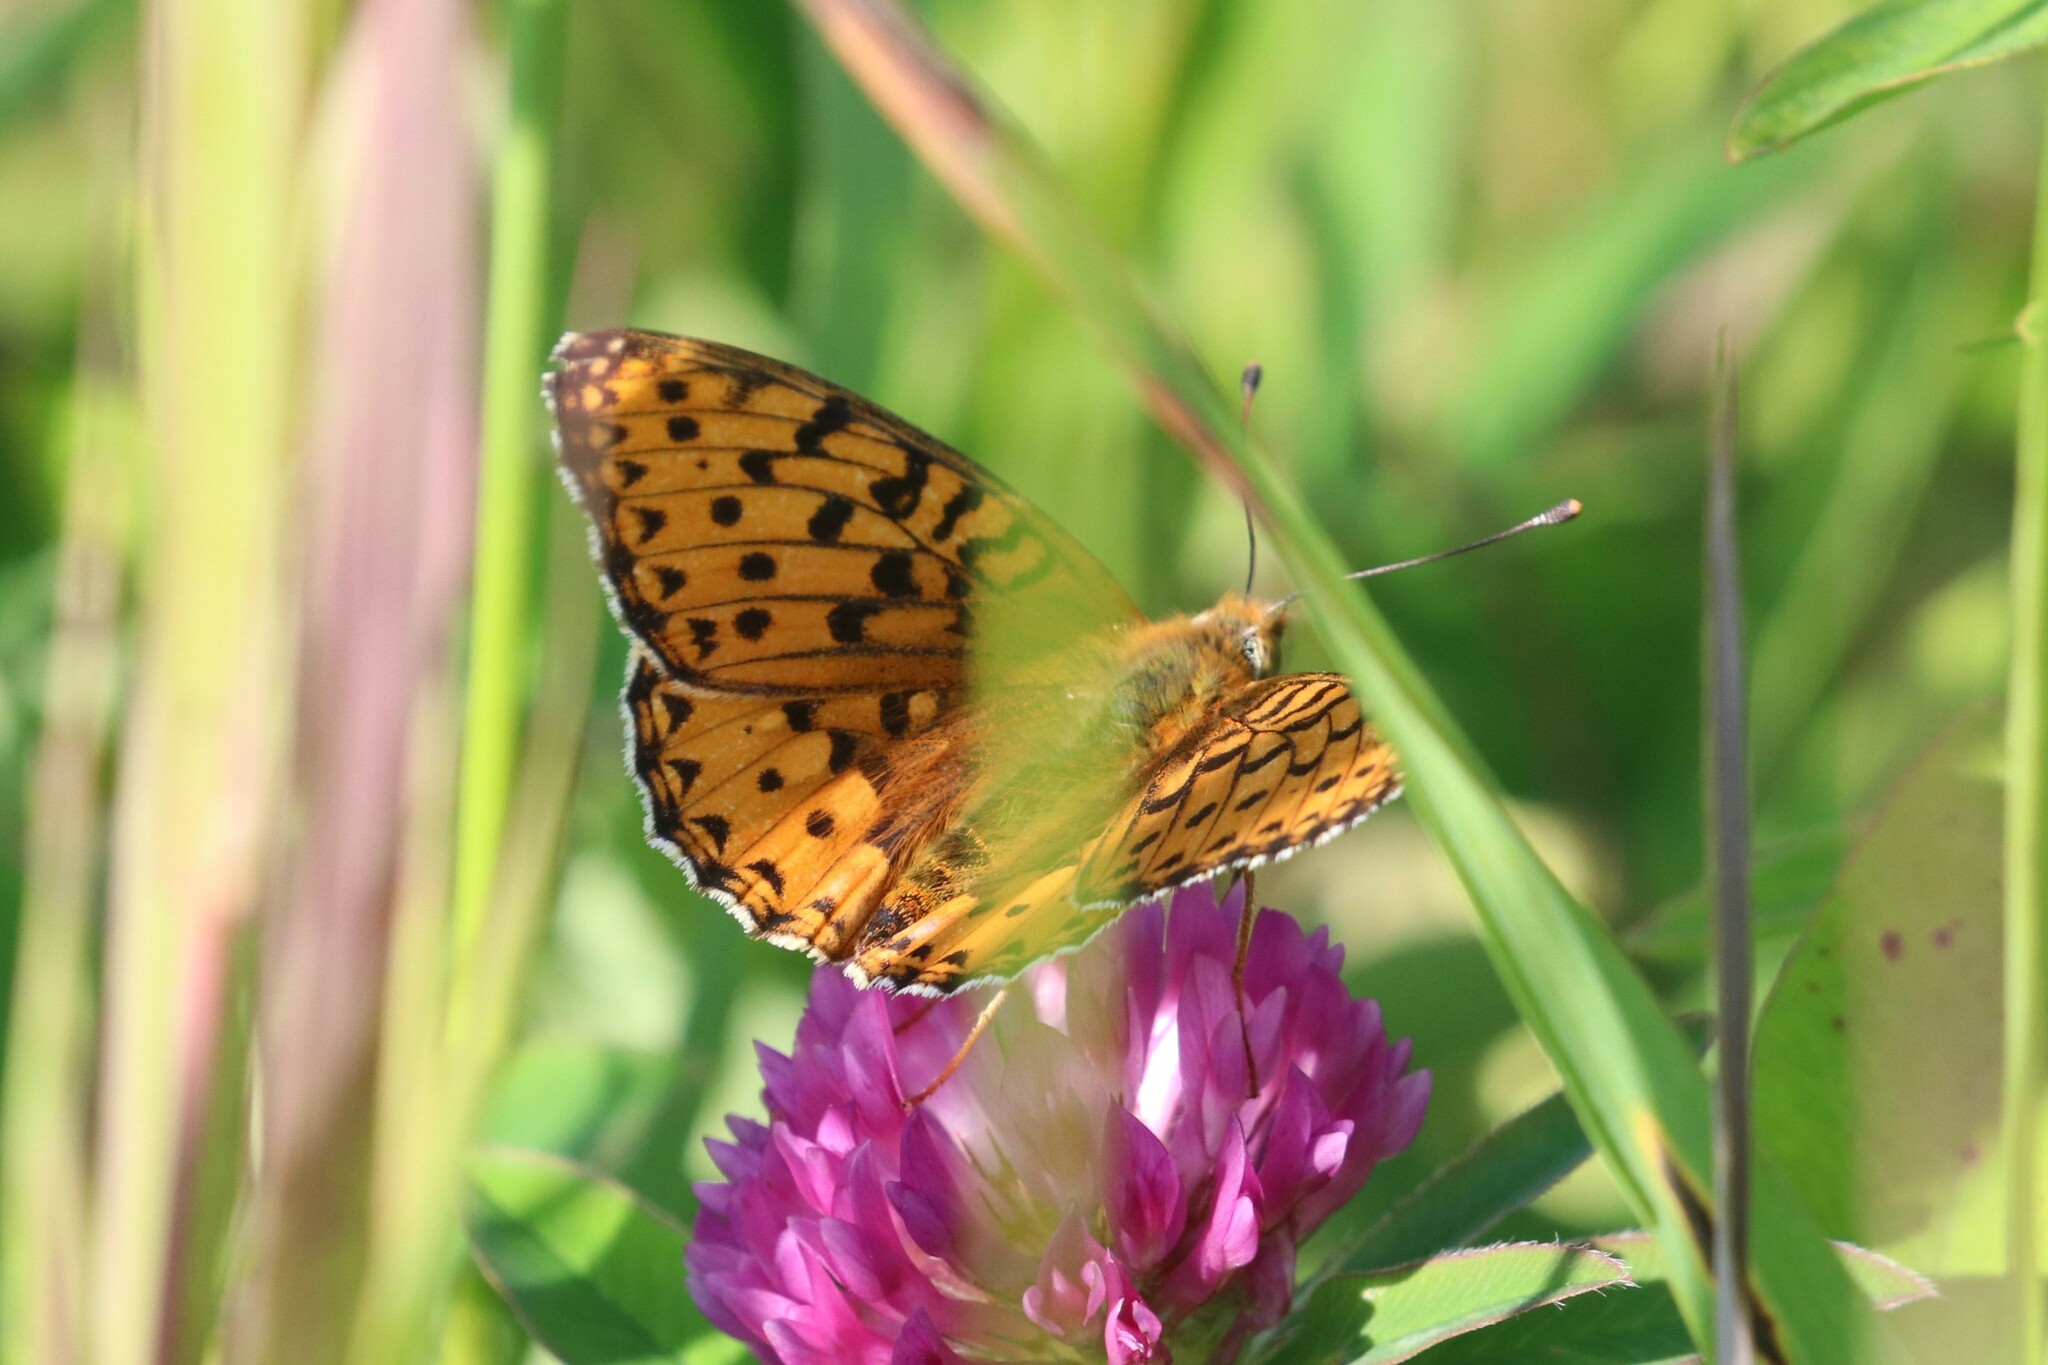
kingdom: Animalia
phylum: Arthropoda
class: Insecta
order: Lepidoptera
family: Nymphalidae
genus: Speyeria
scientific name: Speyeria aglaja
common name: Dark green fritillary
